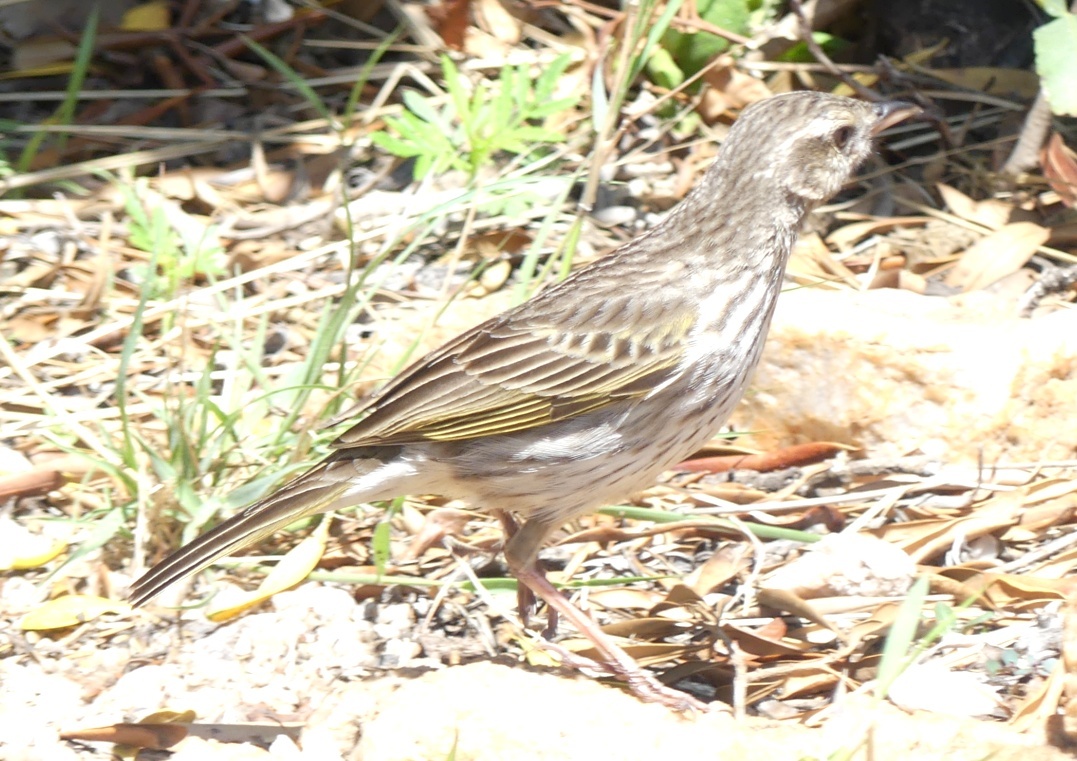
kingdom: Animalia
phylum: Chordata
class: Aves
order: Passeriformes
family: Motacillidae
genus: Anthus
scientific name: Anthus lineiventris
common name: Striped pipit
